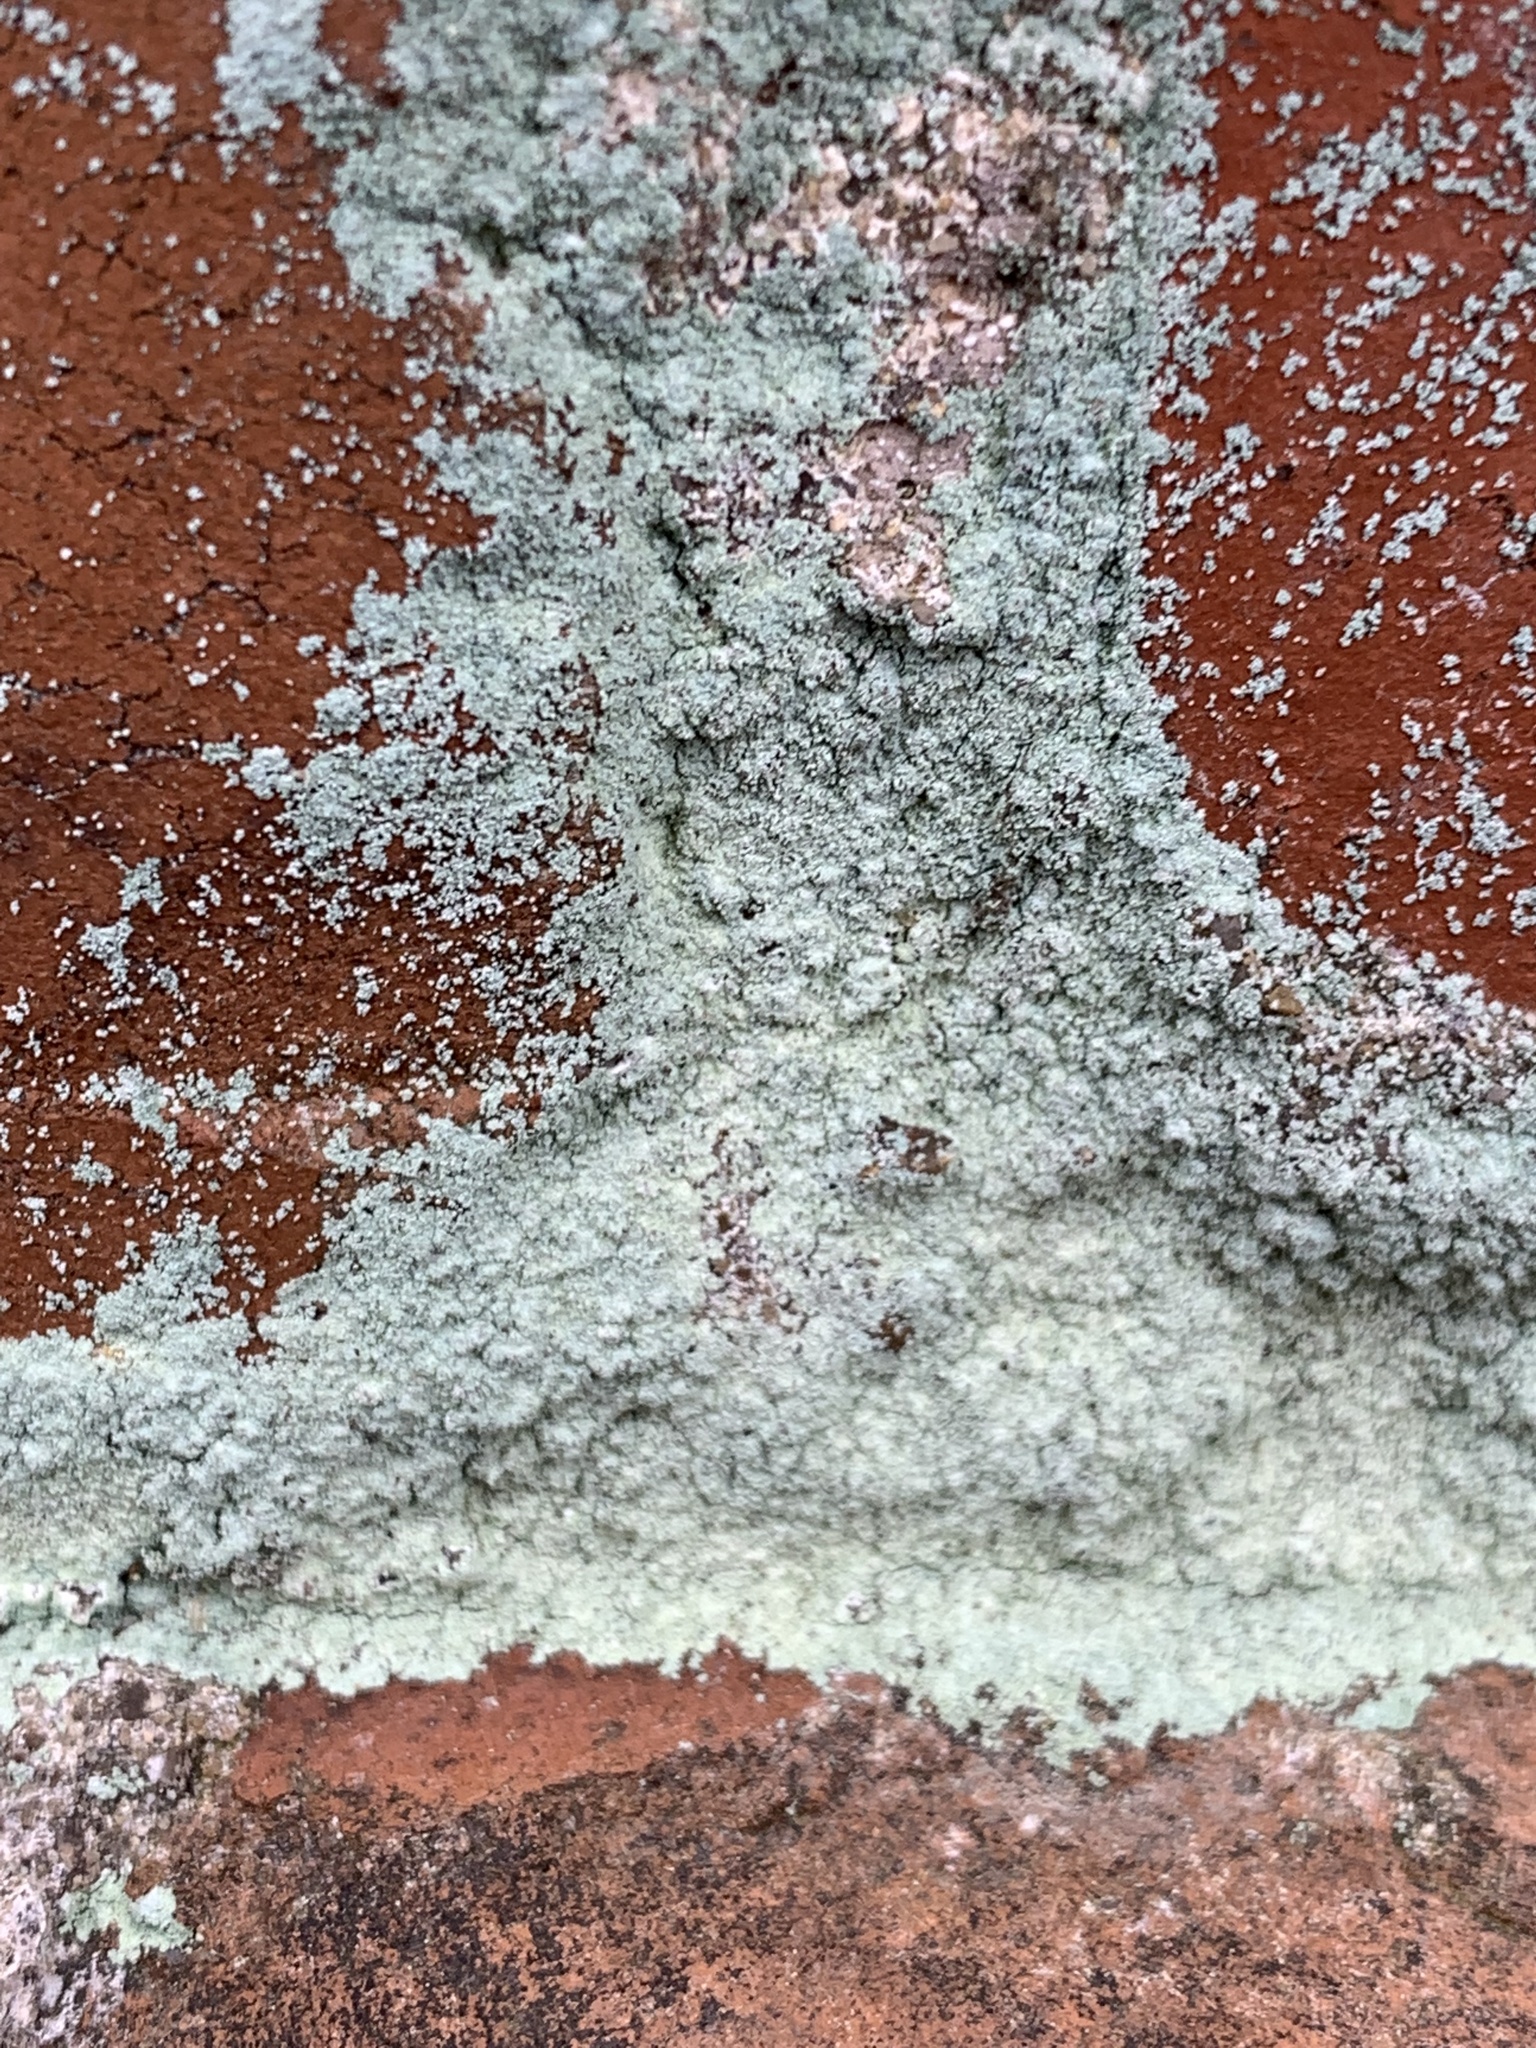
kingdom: Fungi
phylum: Ascomycota
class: Lecanoromycetes
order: Lecanorales
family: Stereocaulaceae
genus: Lepraria
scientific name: Lepraria lobificans
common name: Fluffy dust lichen
